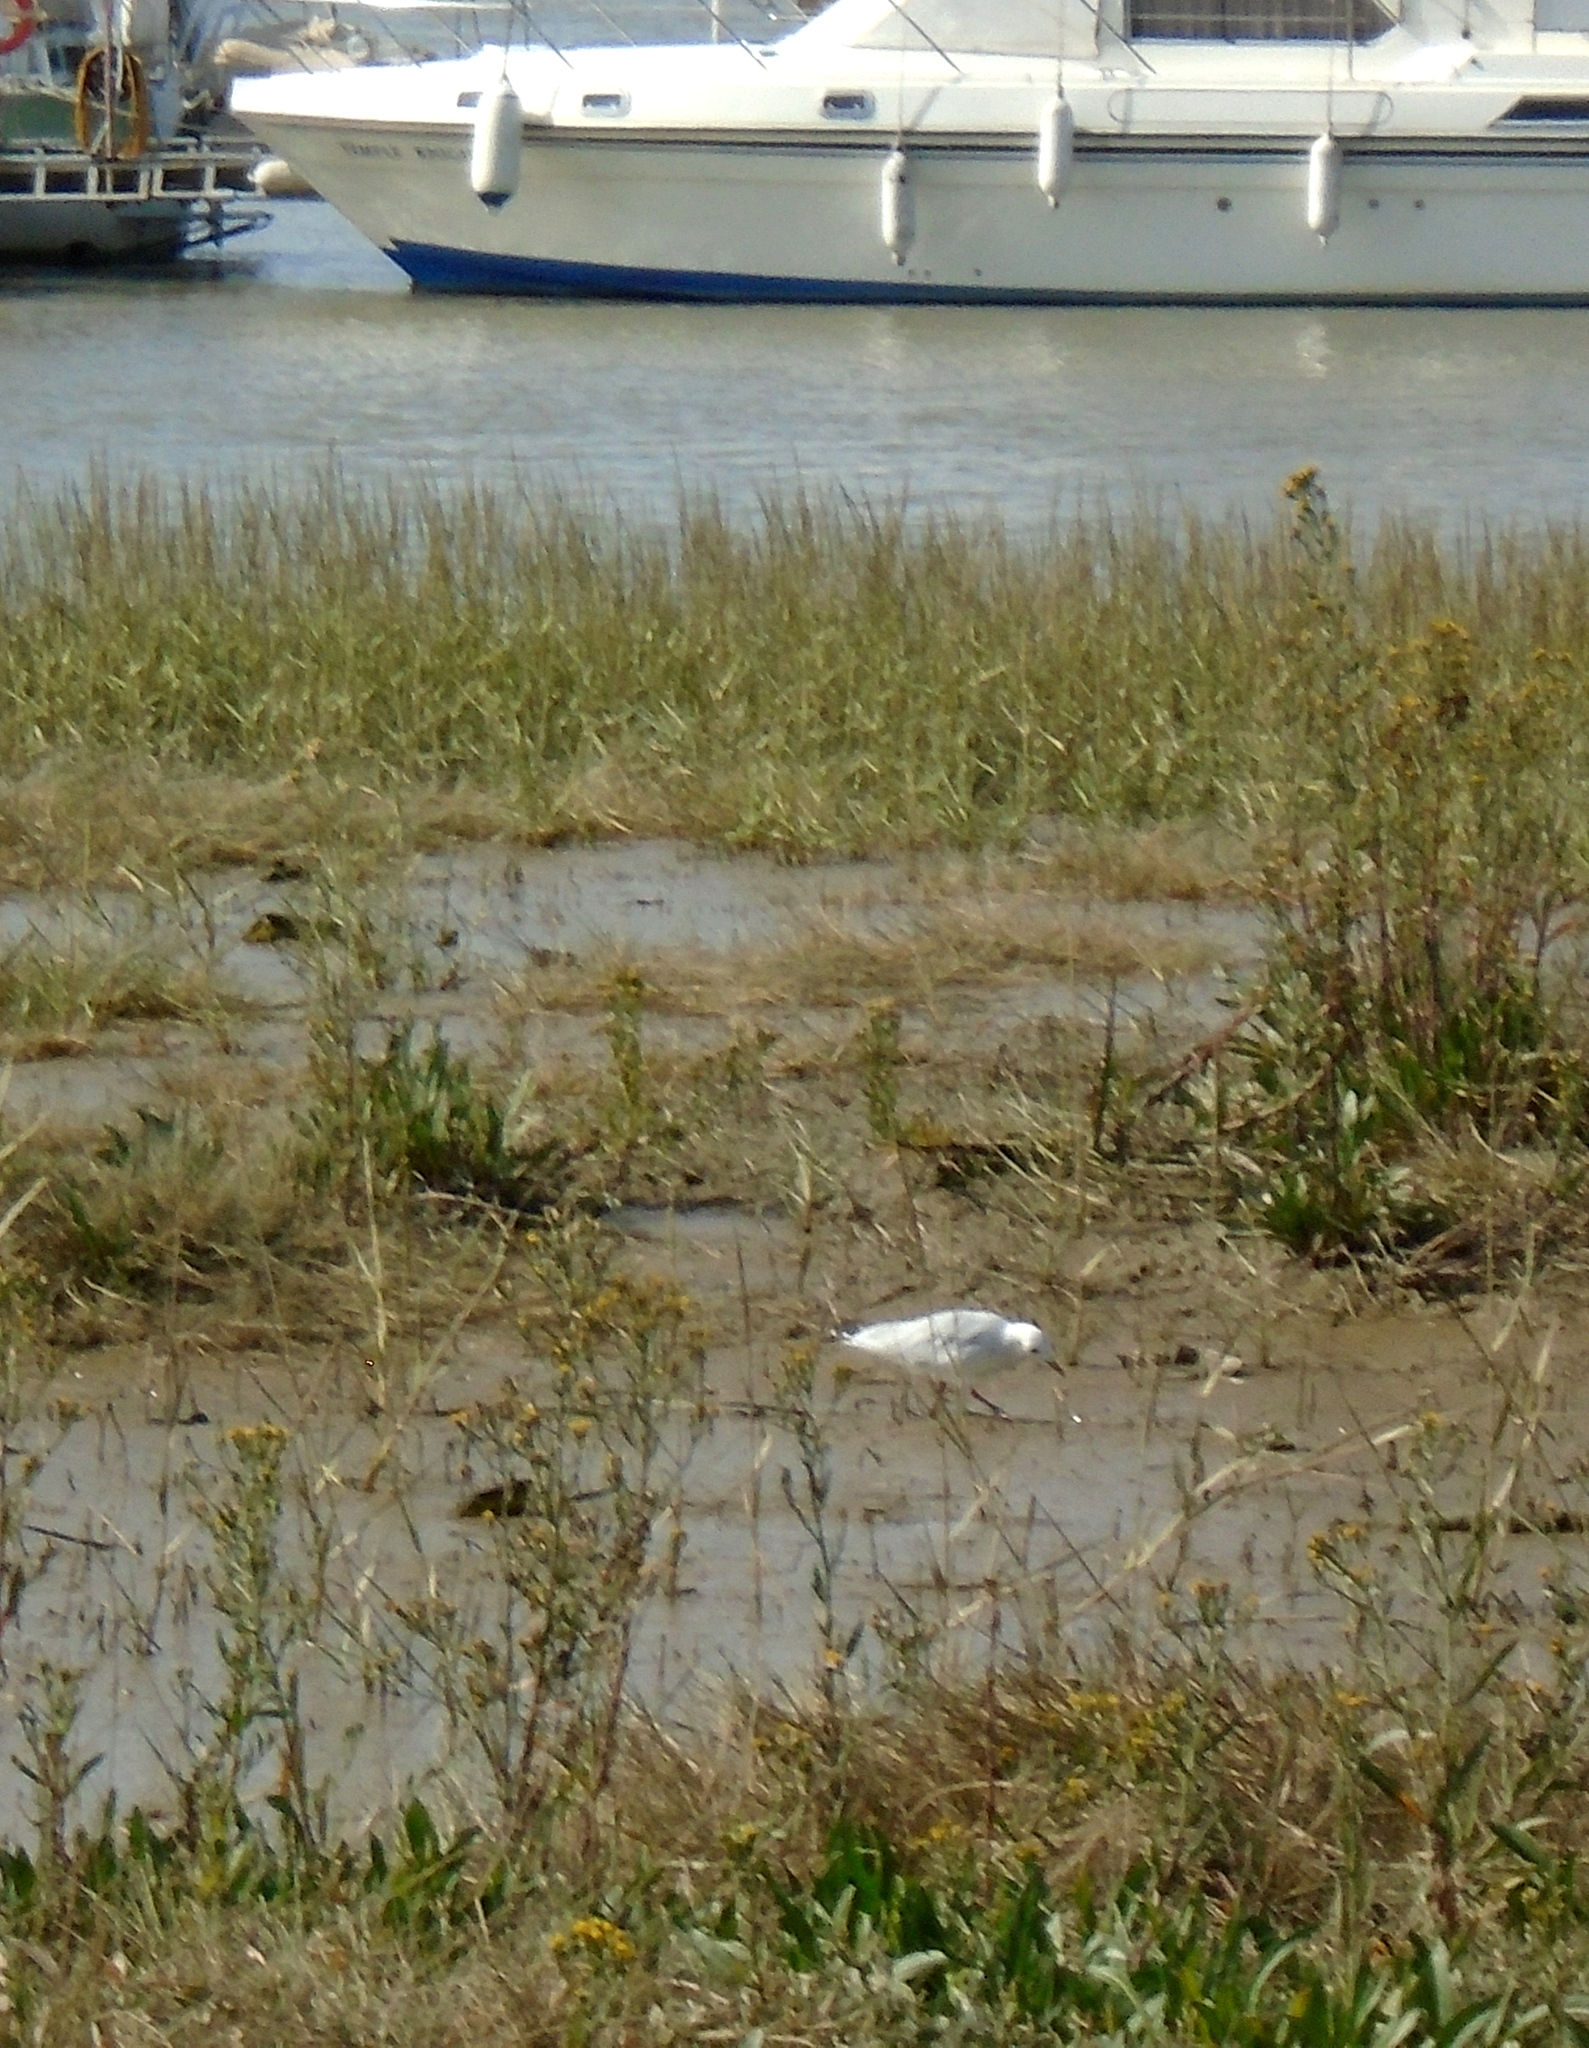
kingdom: Animalia
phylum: Chordata
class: Aves
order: Charadriiformes
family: Laridae
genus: Chroicocephalus
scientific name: Chroicocephalus ridibundus
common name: Black-headed gull
